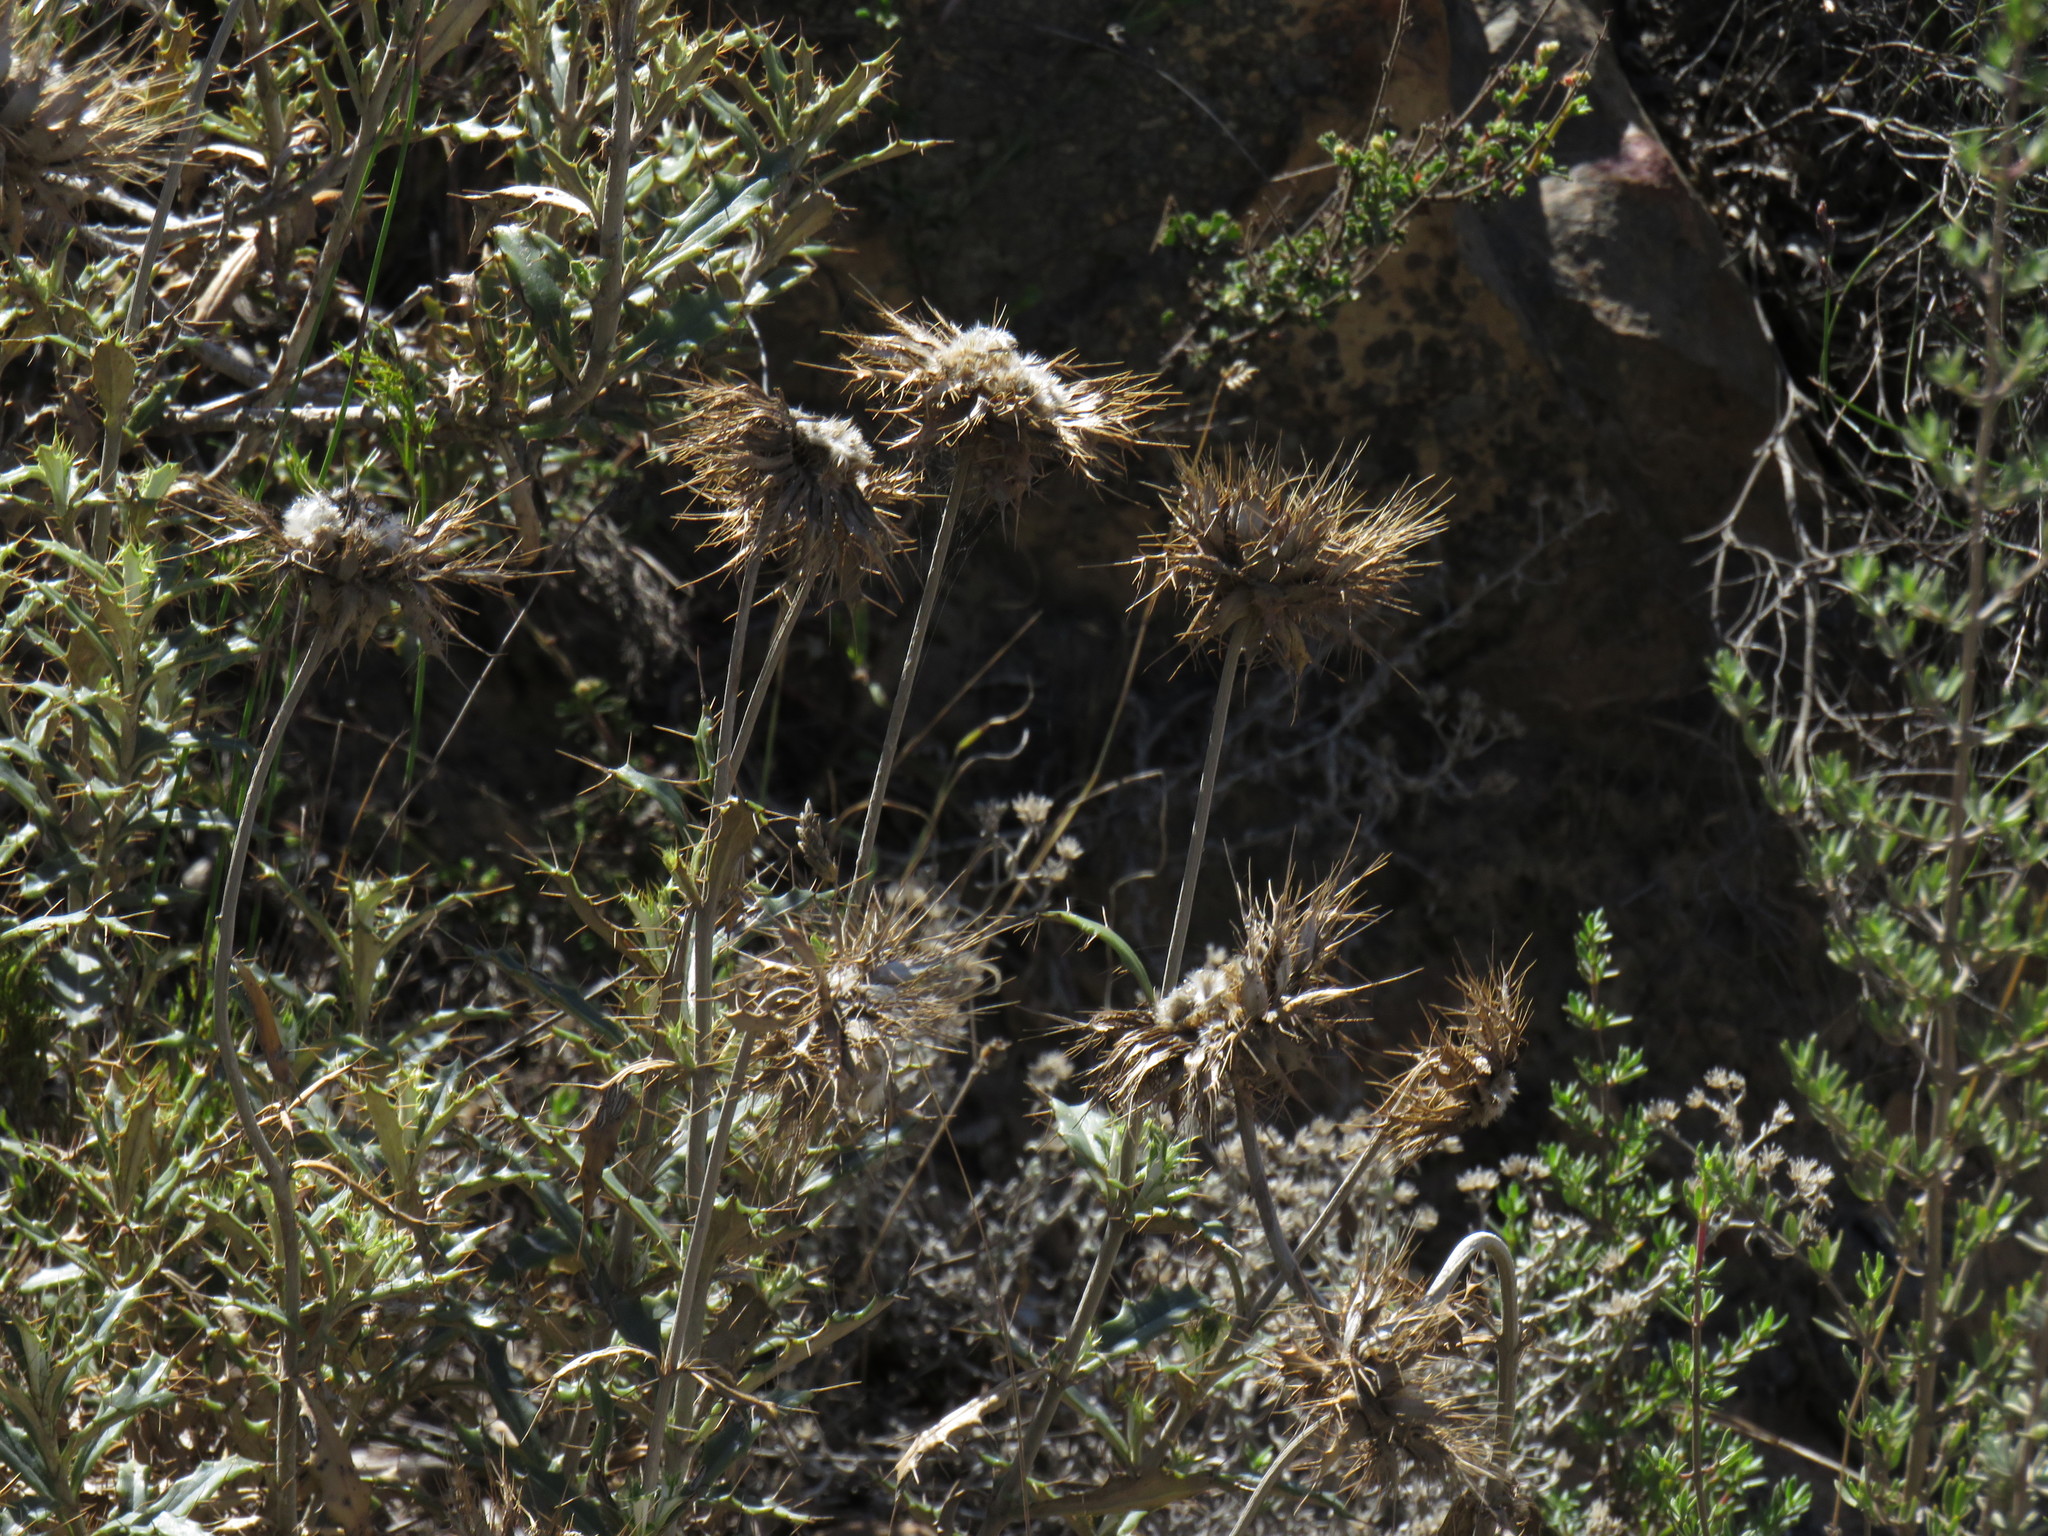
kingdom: Plantae
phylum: Tracheophyta
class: Magnoliopsida
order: Asterales
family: Asteraceae
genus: Berkheya
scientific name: Berkheya barbata
